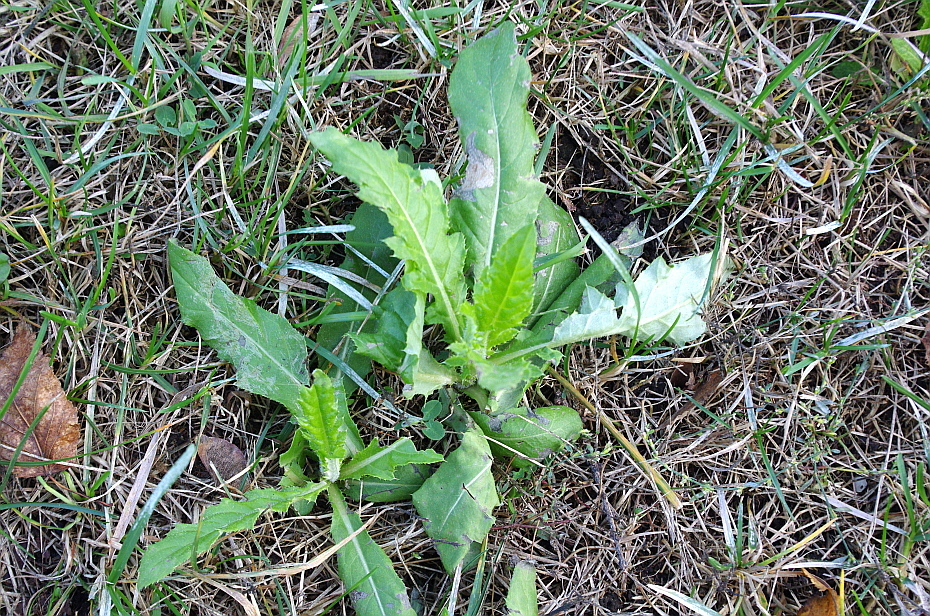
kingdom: Plantae
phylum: Tracheophyta
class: Magnoliopsida
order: Asterales
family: Asteraceae
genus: Cirsium
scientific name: Cirsium arvense
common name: Creeping thistle
